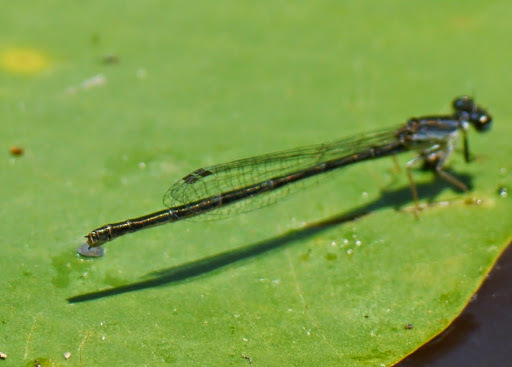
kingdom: Animalia
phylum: Arthropoda
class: Insecta
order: Odonata
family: Coenagrionidae
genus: Ischnura
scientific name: Ischnura posita
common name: Fragile forktail
